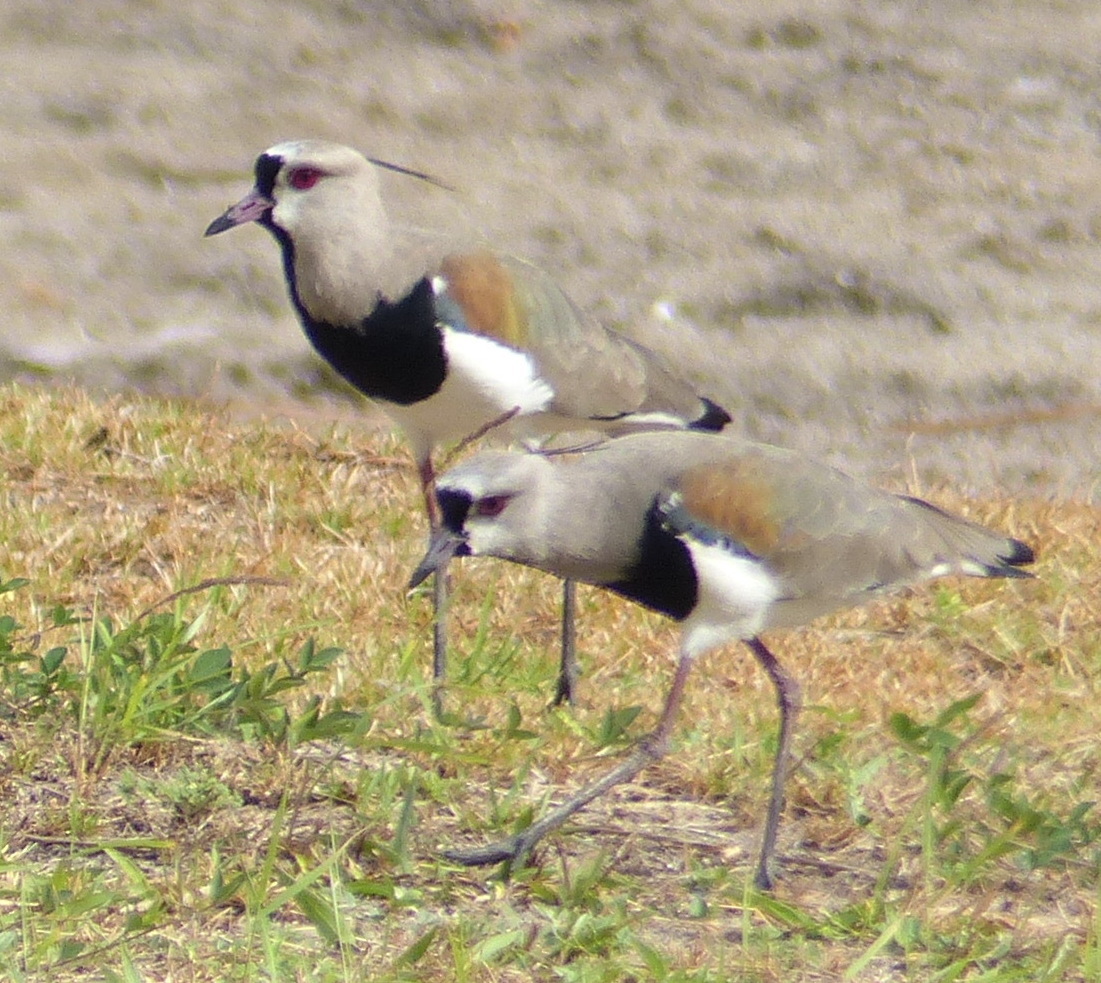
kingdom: Animalia
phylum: Chordata
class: Aves
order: Charadriiformes
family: Charadriidae
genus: Vanellus
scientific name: Vanellus chilensis
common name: Southern lapwing
